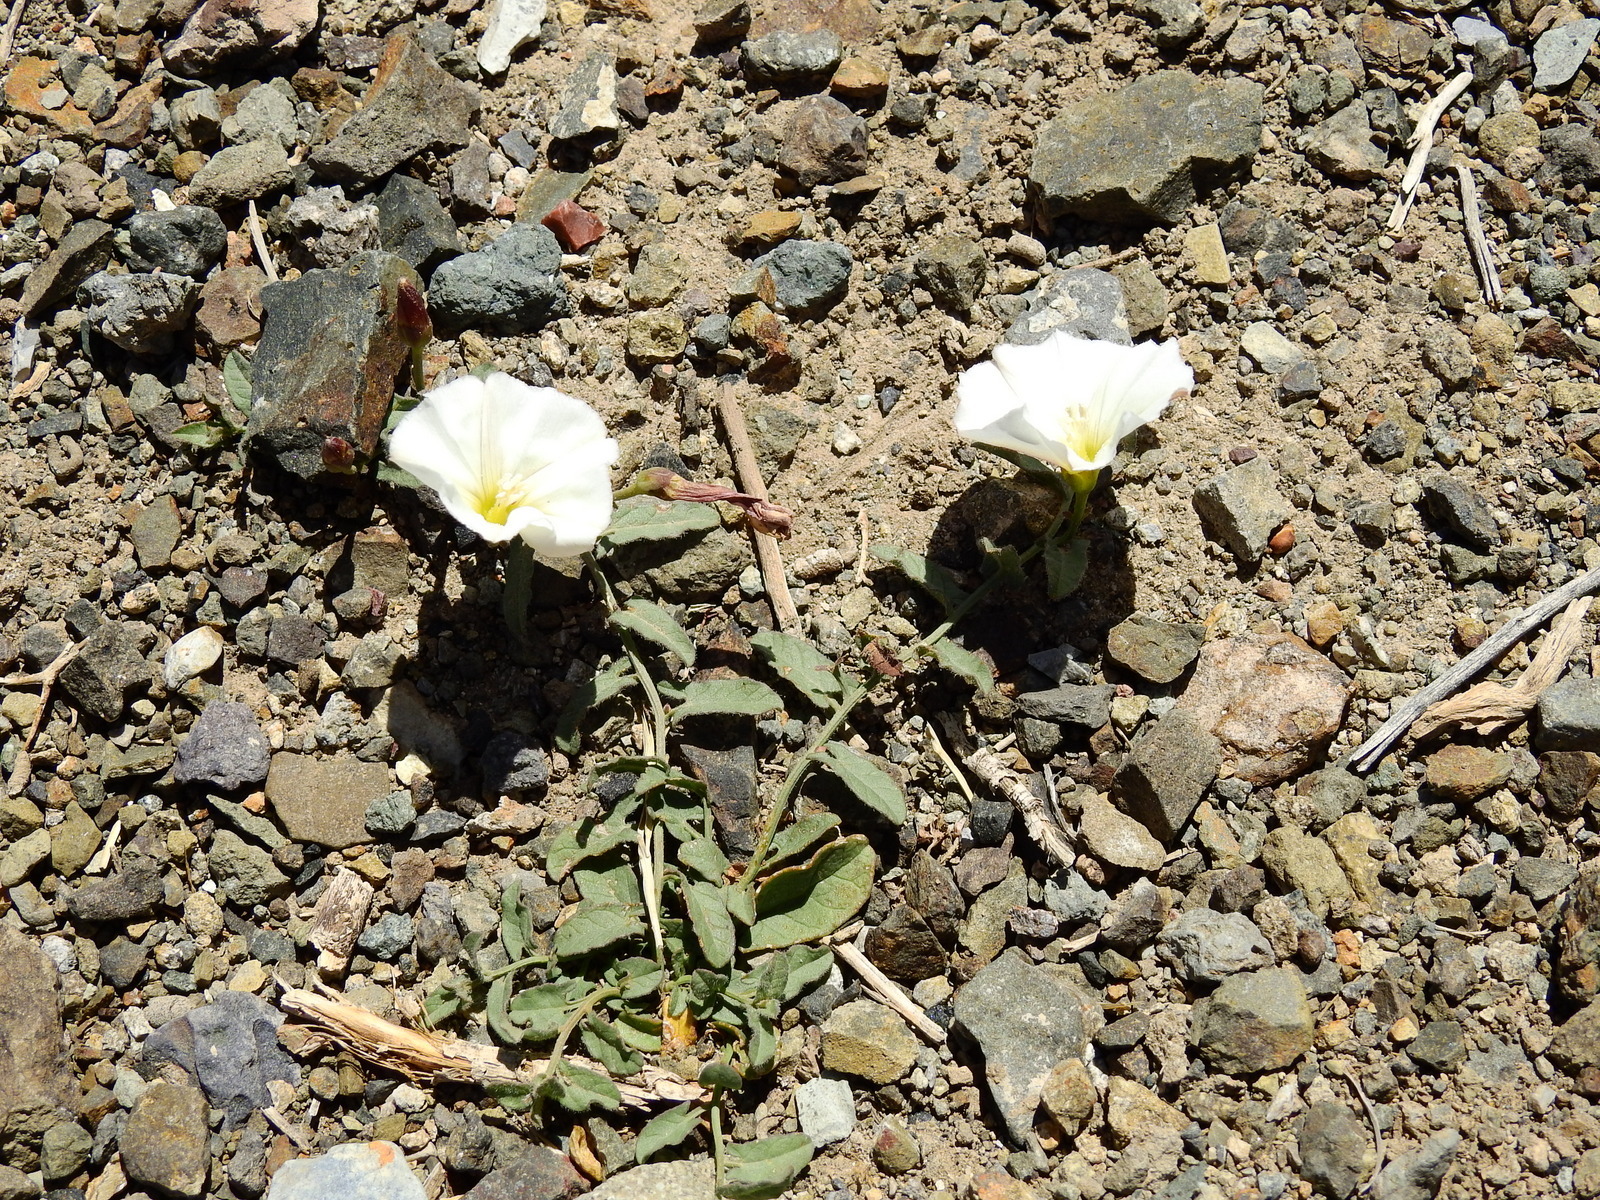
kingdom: Plantae
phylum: Tracheophyta
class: Magnoliopsida
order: Solanales
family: Convolvulaceae
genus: Convolvulus
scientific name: Convolvulus arvensis
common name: Field bindweed
